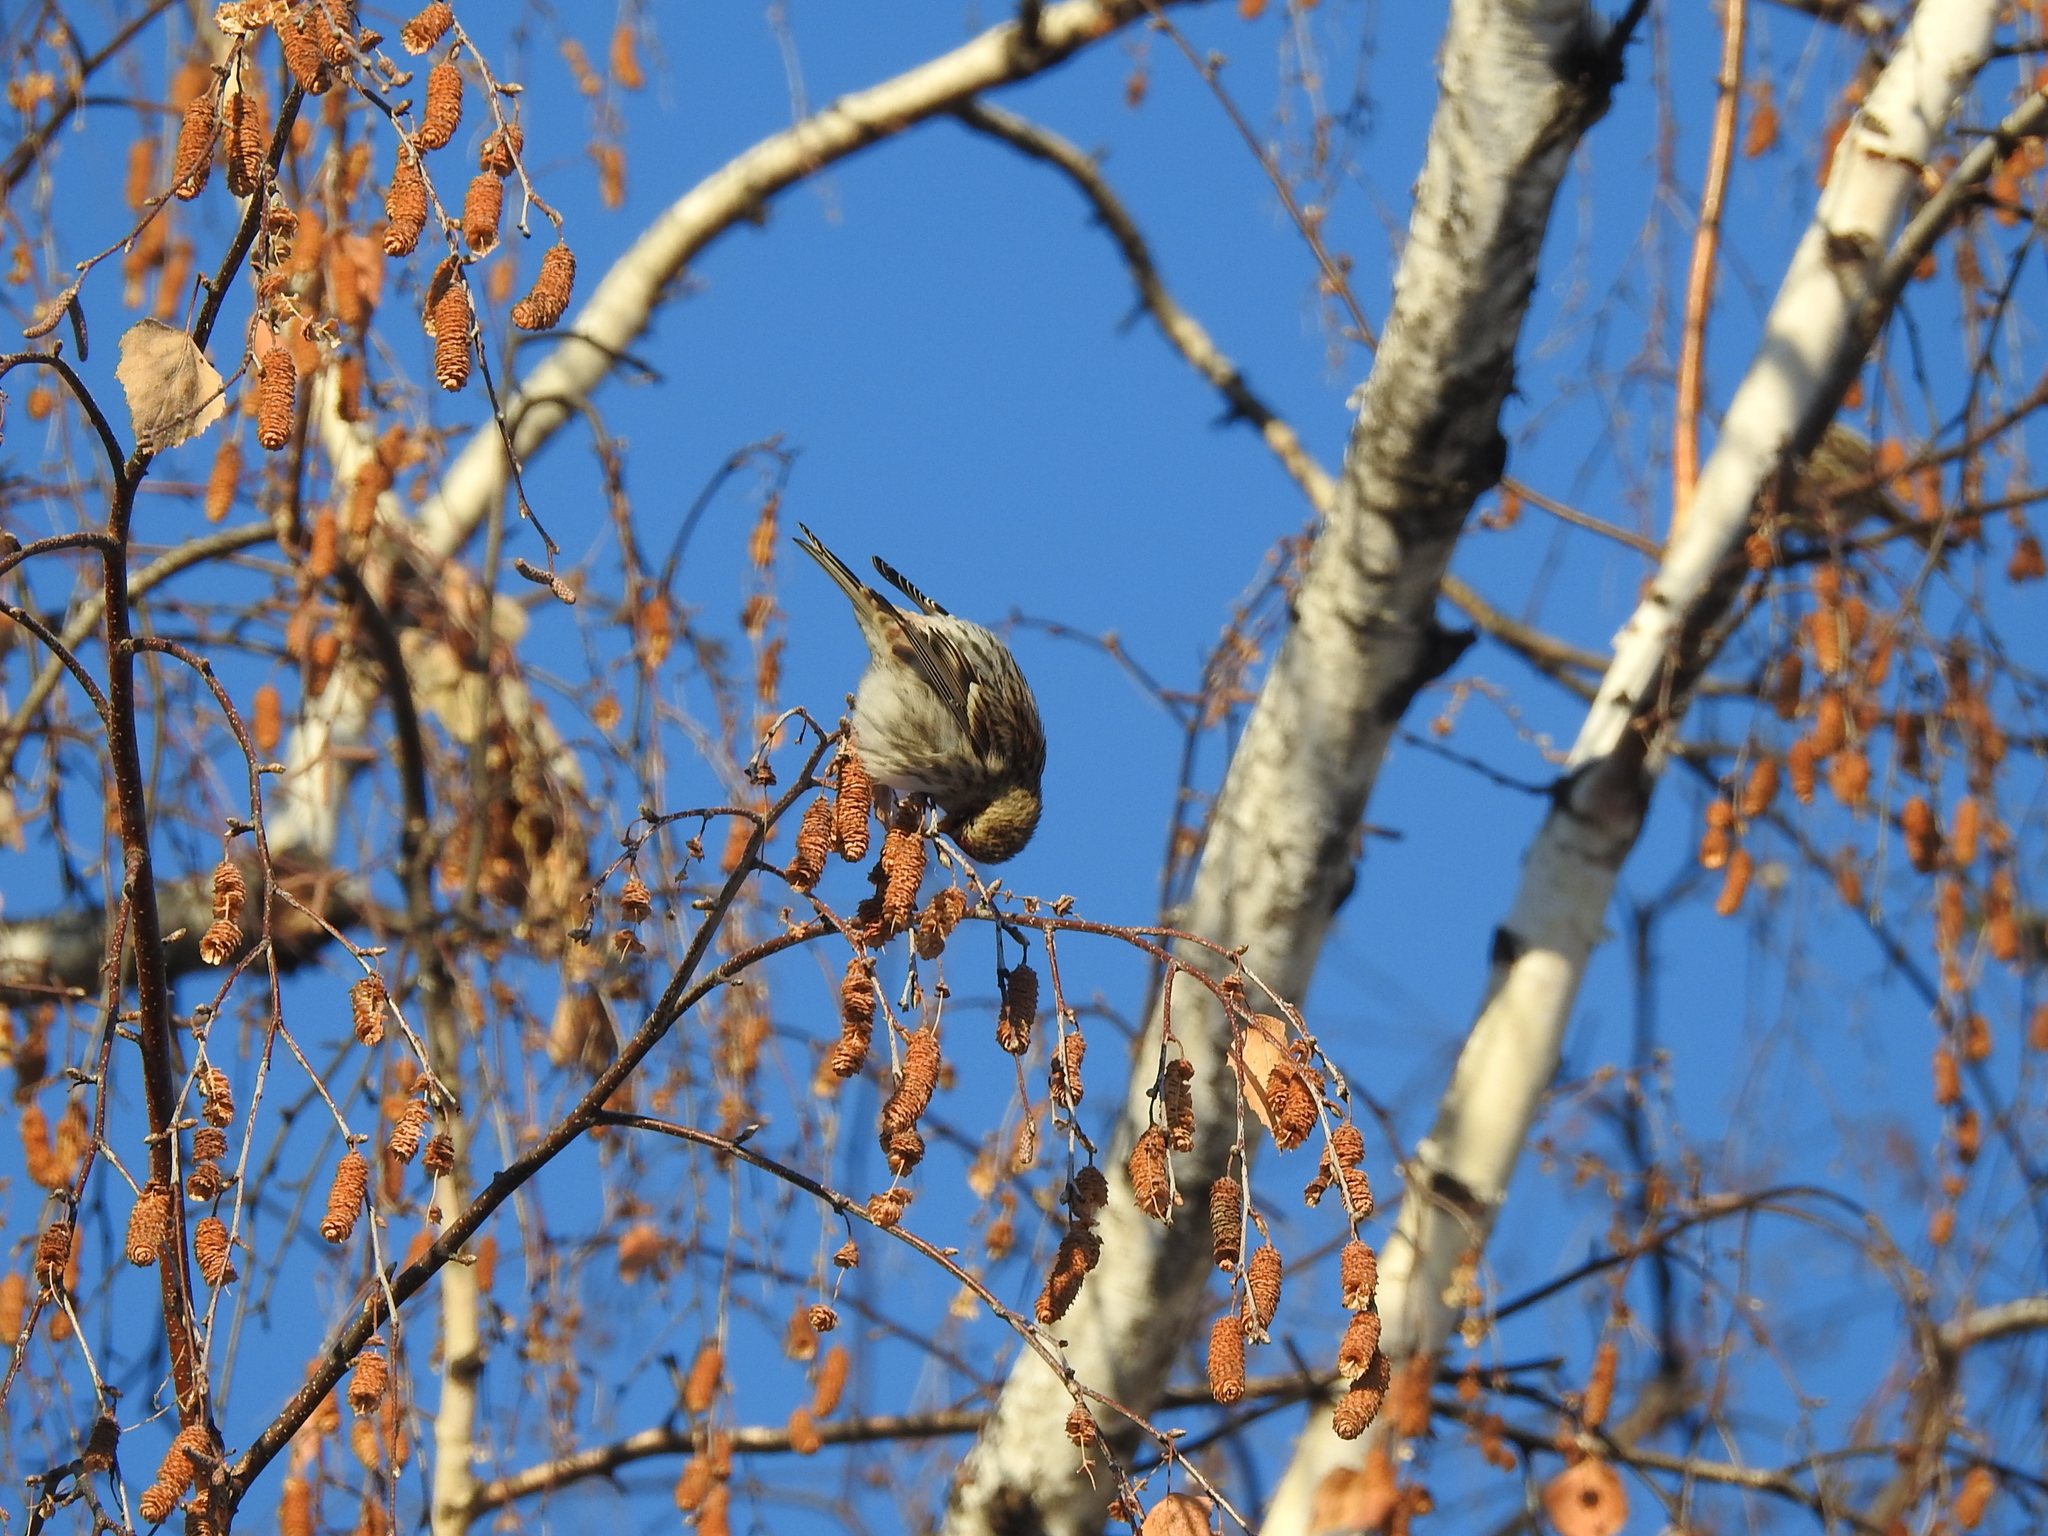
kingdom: Animalia
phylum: Chordata
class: Aves
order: Passeriformes
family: Fringillidae
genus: Acanthis
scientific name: Acanthis flammea
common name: Common redpoll
